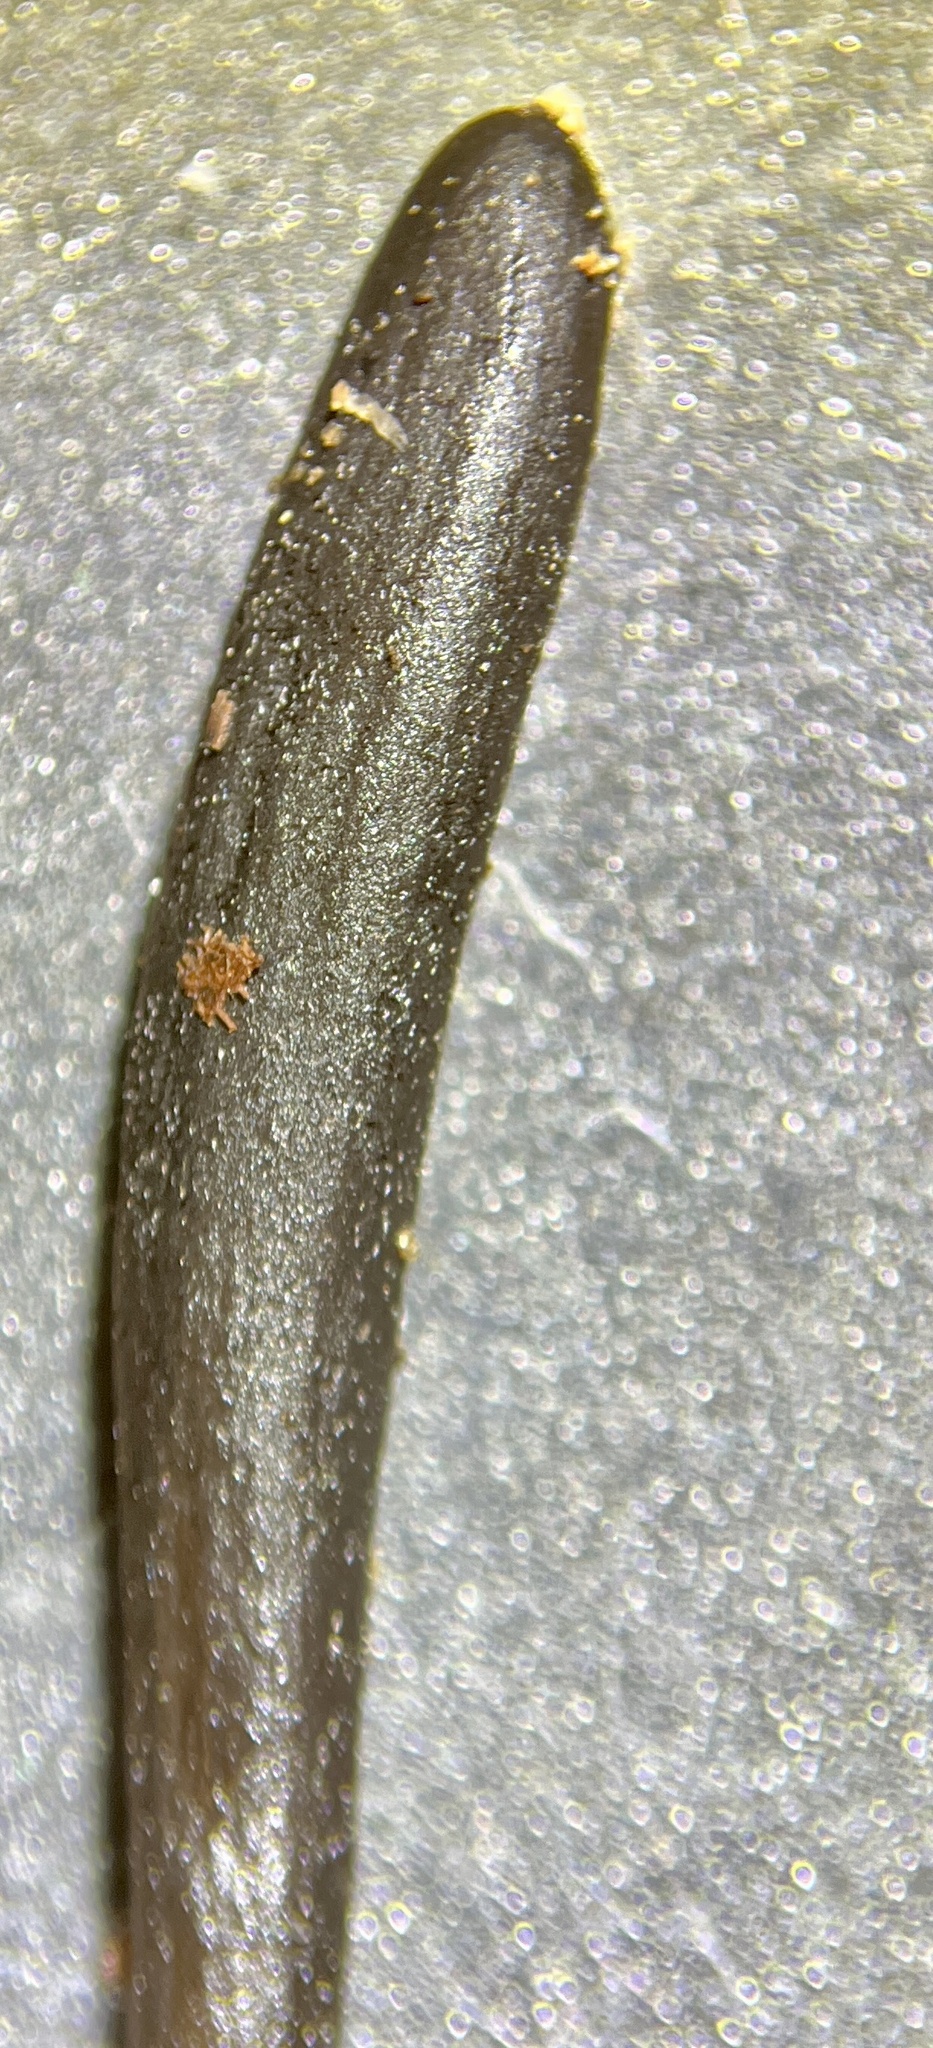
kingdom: Fungi
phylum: Ascomycota
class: Geoglossomycetes
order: Geoglossales
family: Geoglossaceae
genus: Geoglossum
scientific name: Geoglossum difforme
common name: Slimy earthtongue
